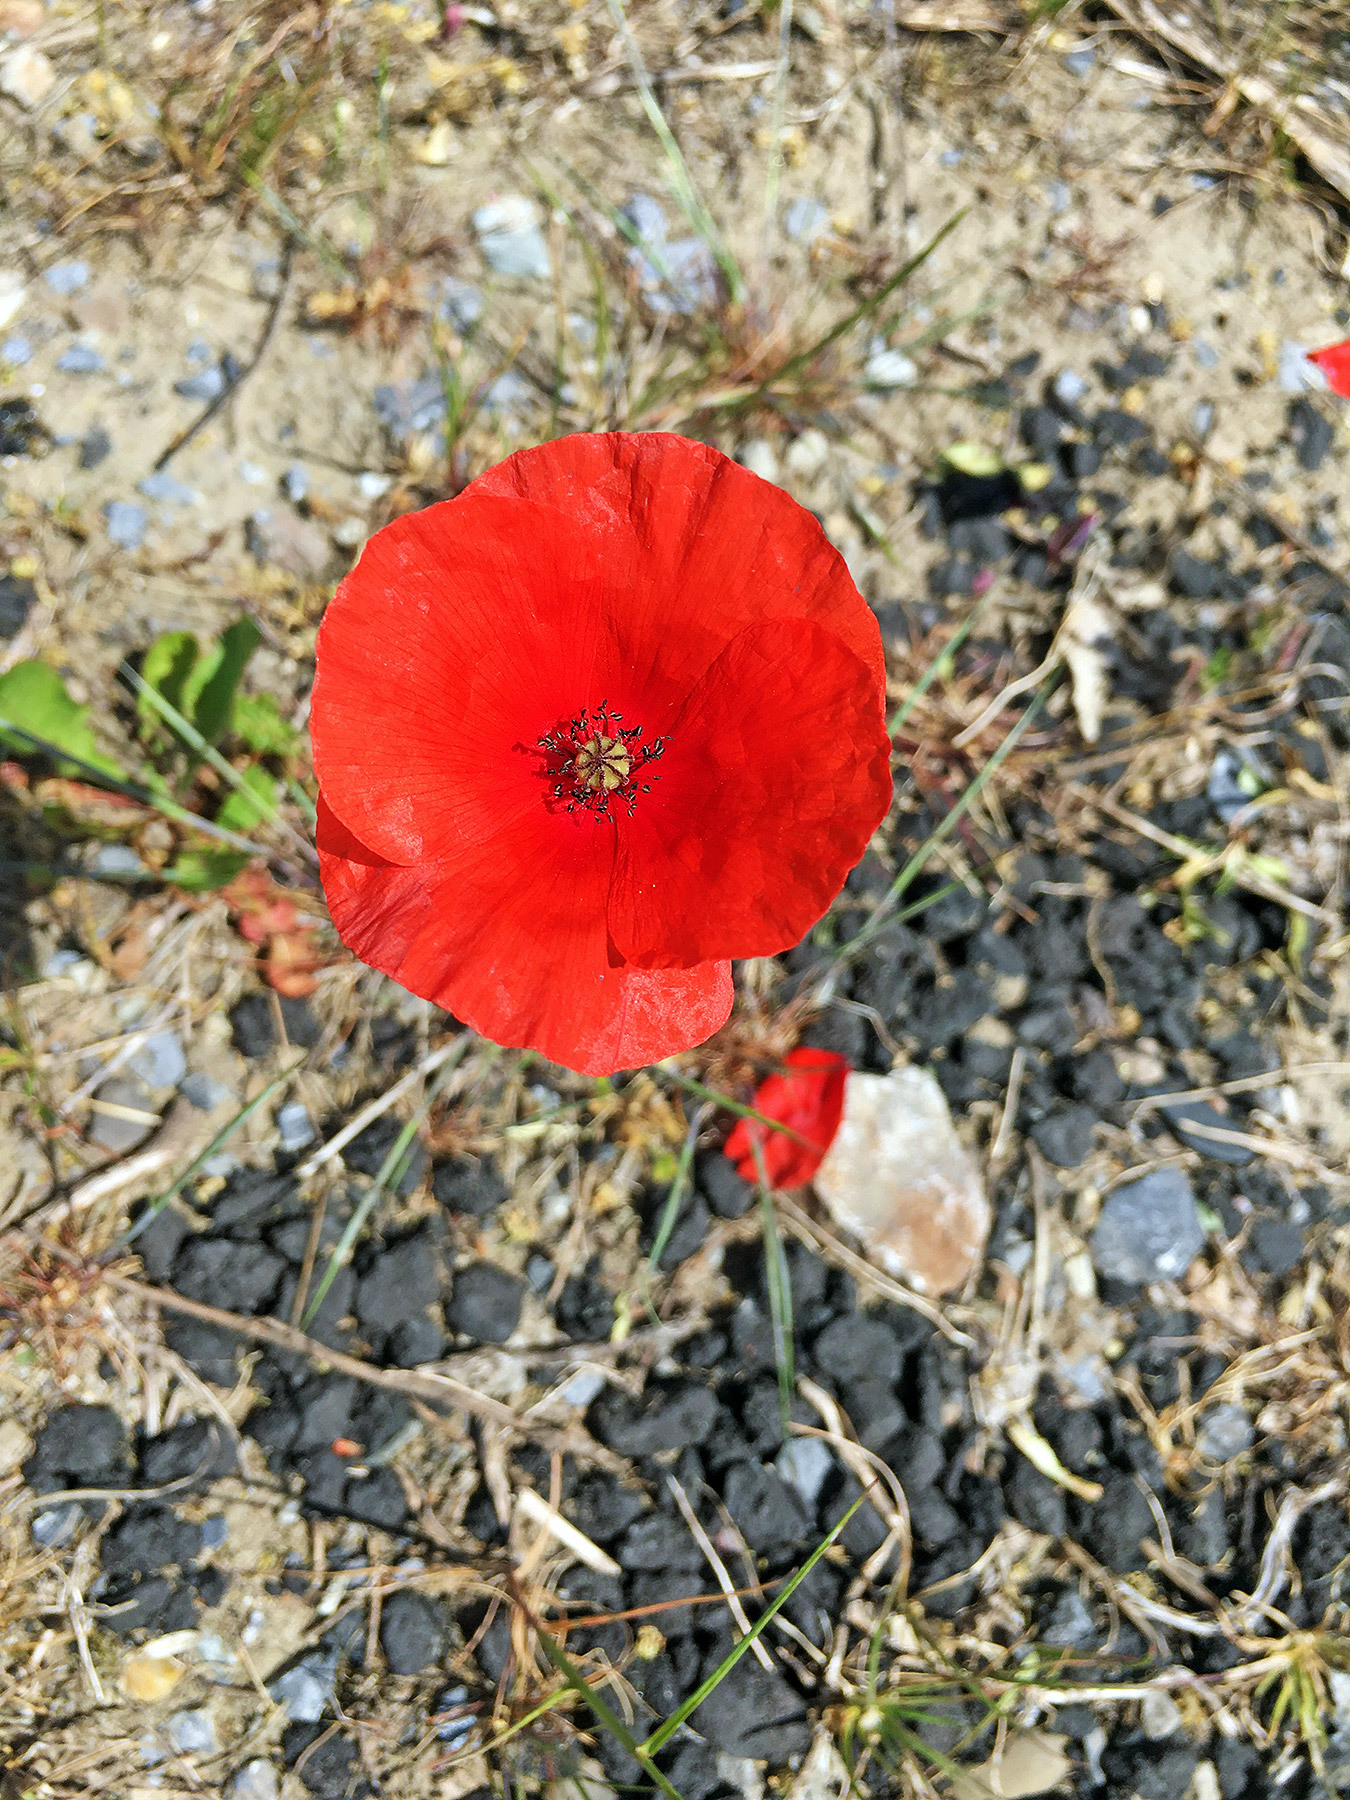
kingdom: Plantae
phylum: Tracheophyta
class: Magnoliopsida
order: Ranunculales
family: Papaveraceae
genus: Papaver
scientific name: Papaver rhoeas
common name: Corn poppy
